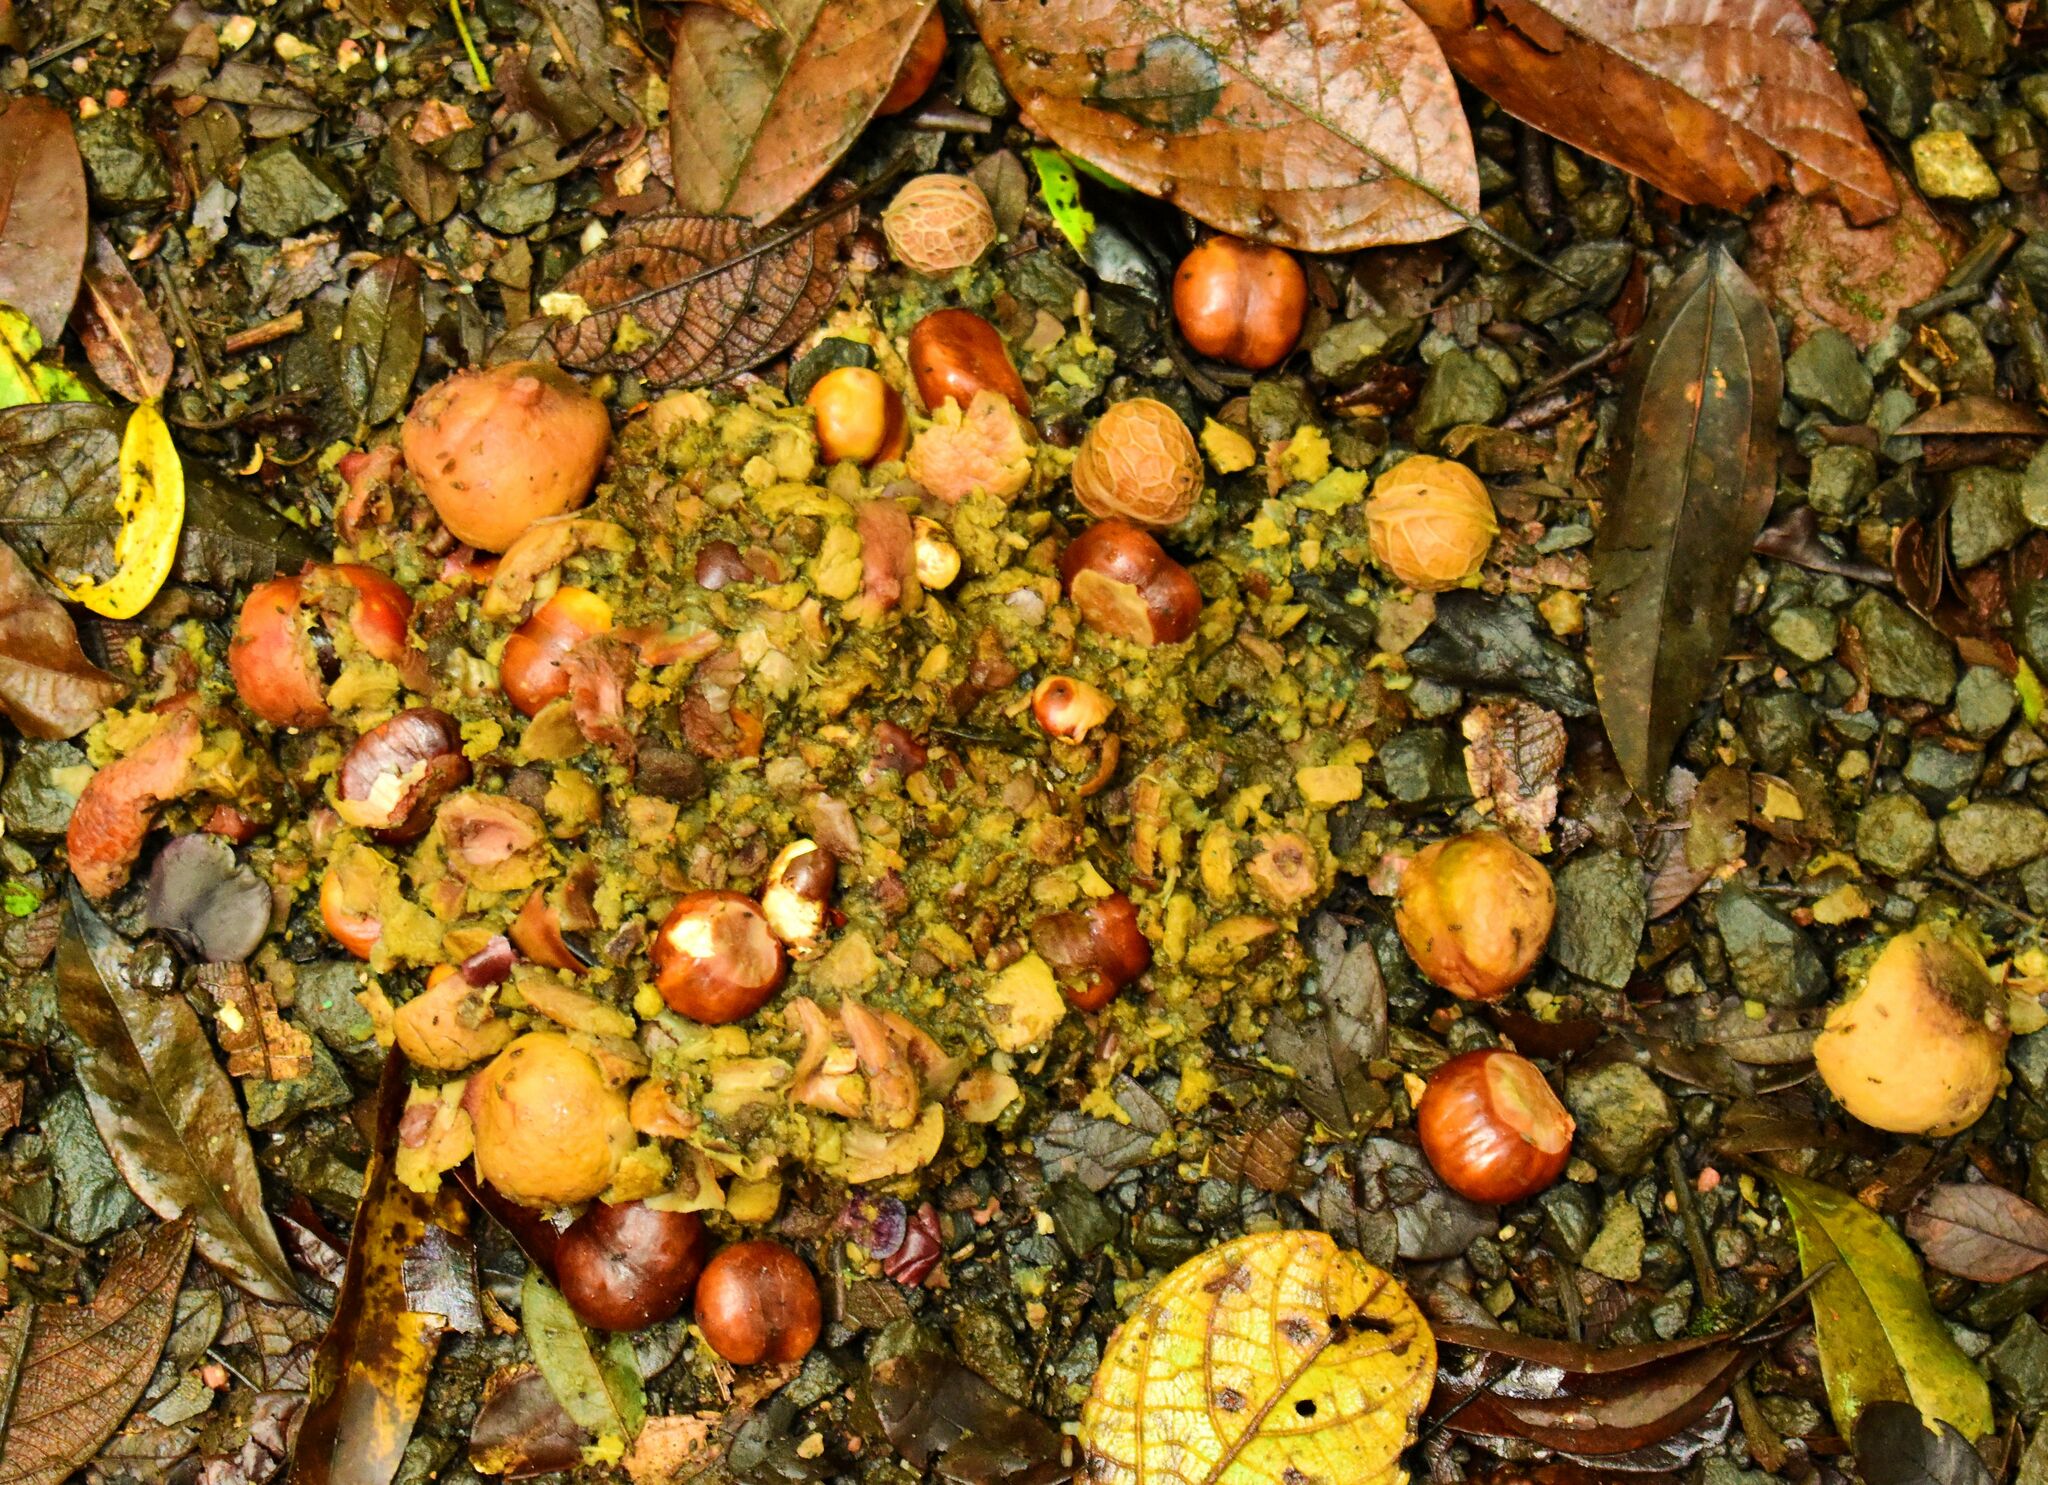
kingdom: Animalia
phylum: Chordata
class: Aves
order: Casuariiformes
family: Casuariidae
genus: Casuarius
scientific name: Casuarius casuarius
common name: Southern cassowary
